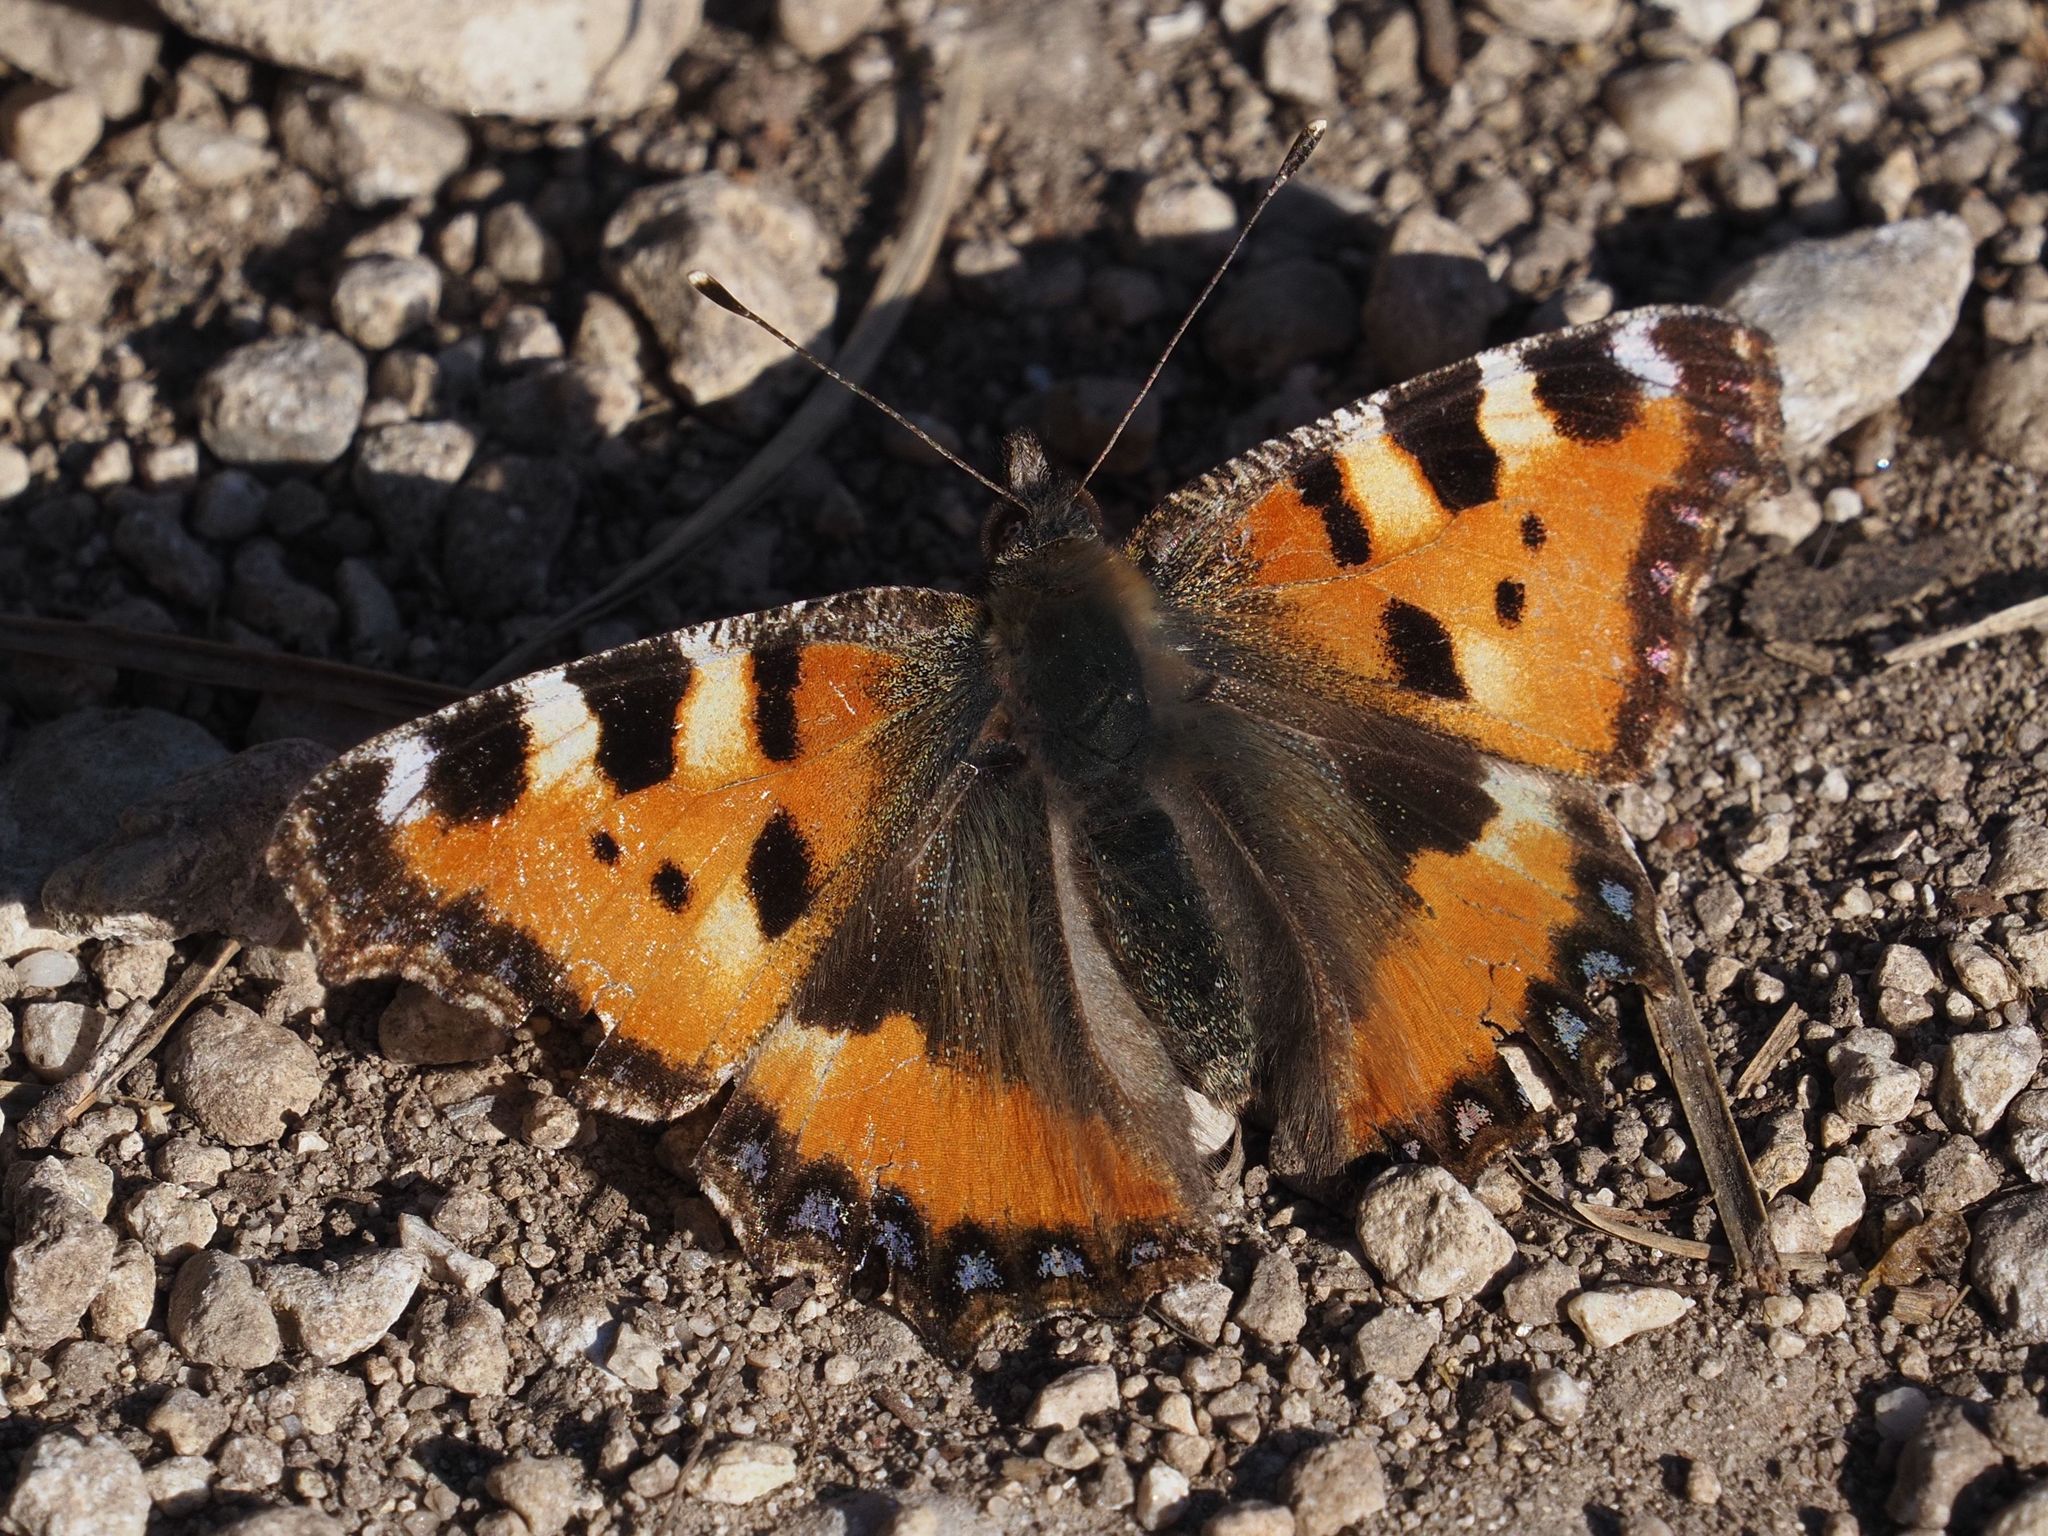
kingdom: Animalia
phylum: Arthropoda
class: Insecta
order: Lepidoptera
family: Nymphalidae
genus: Aglais
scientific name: Aglais urticae
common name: Small tortoiseshell
